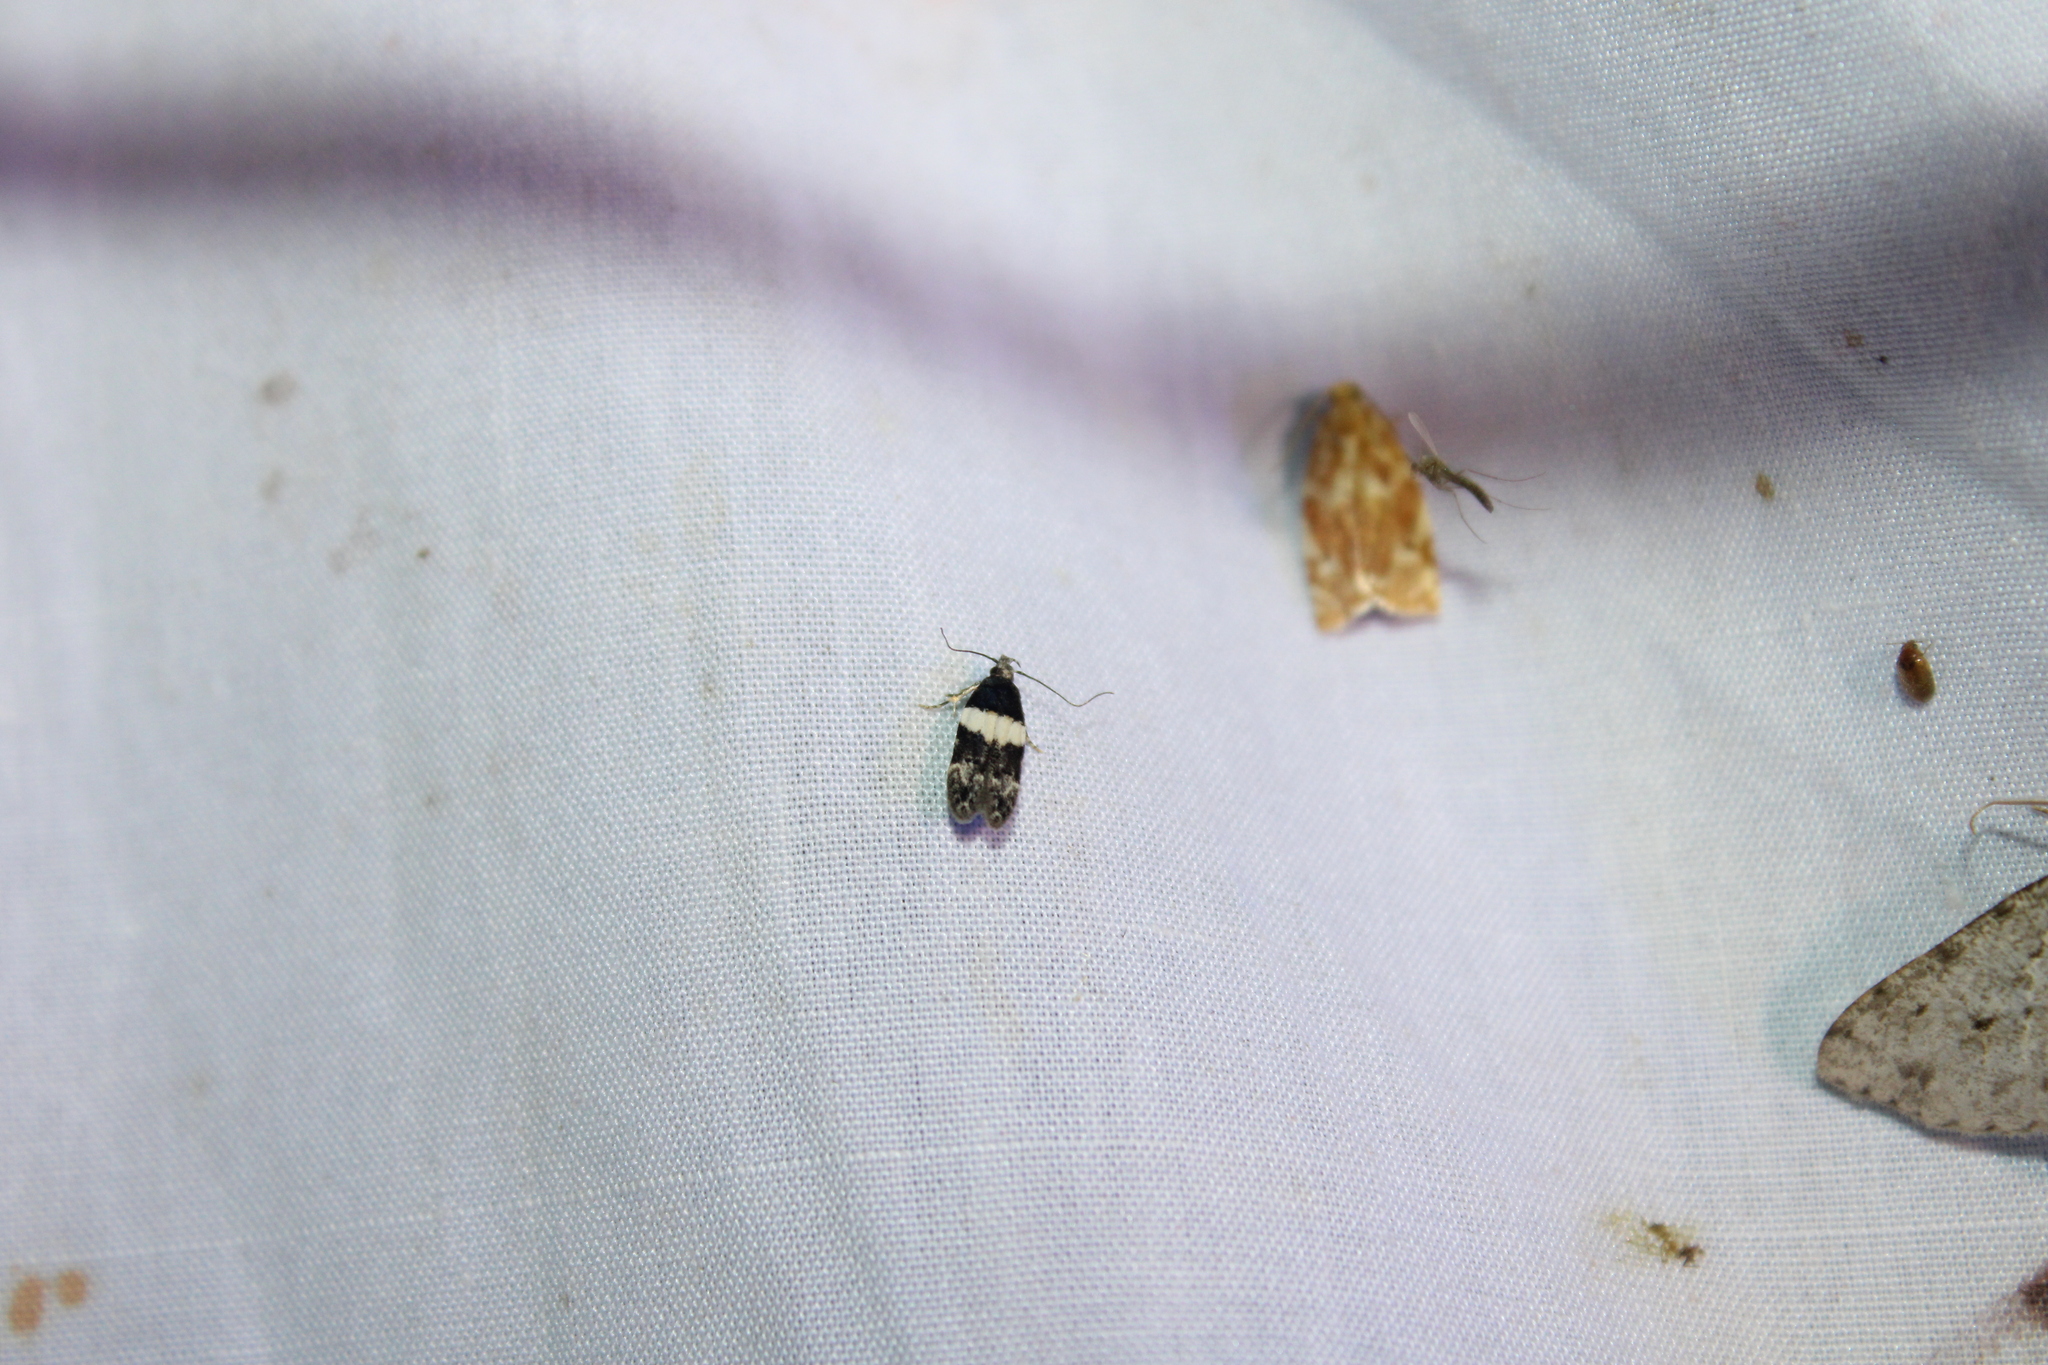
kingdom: Animalia
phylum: Arthropoda
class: Insecta
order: Lepidoptera
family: Gelechiidae
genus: Pubitelphusa
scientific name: Pubitelphusa latifasciella
